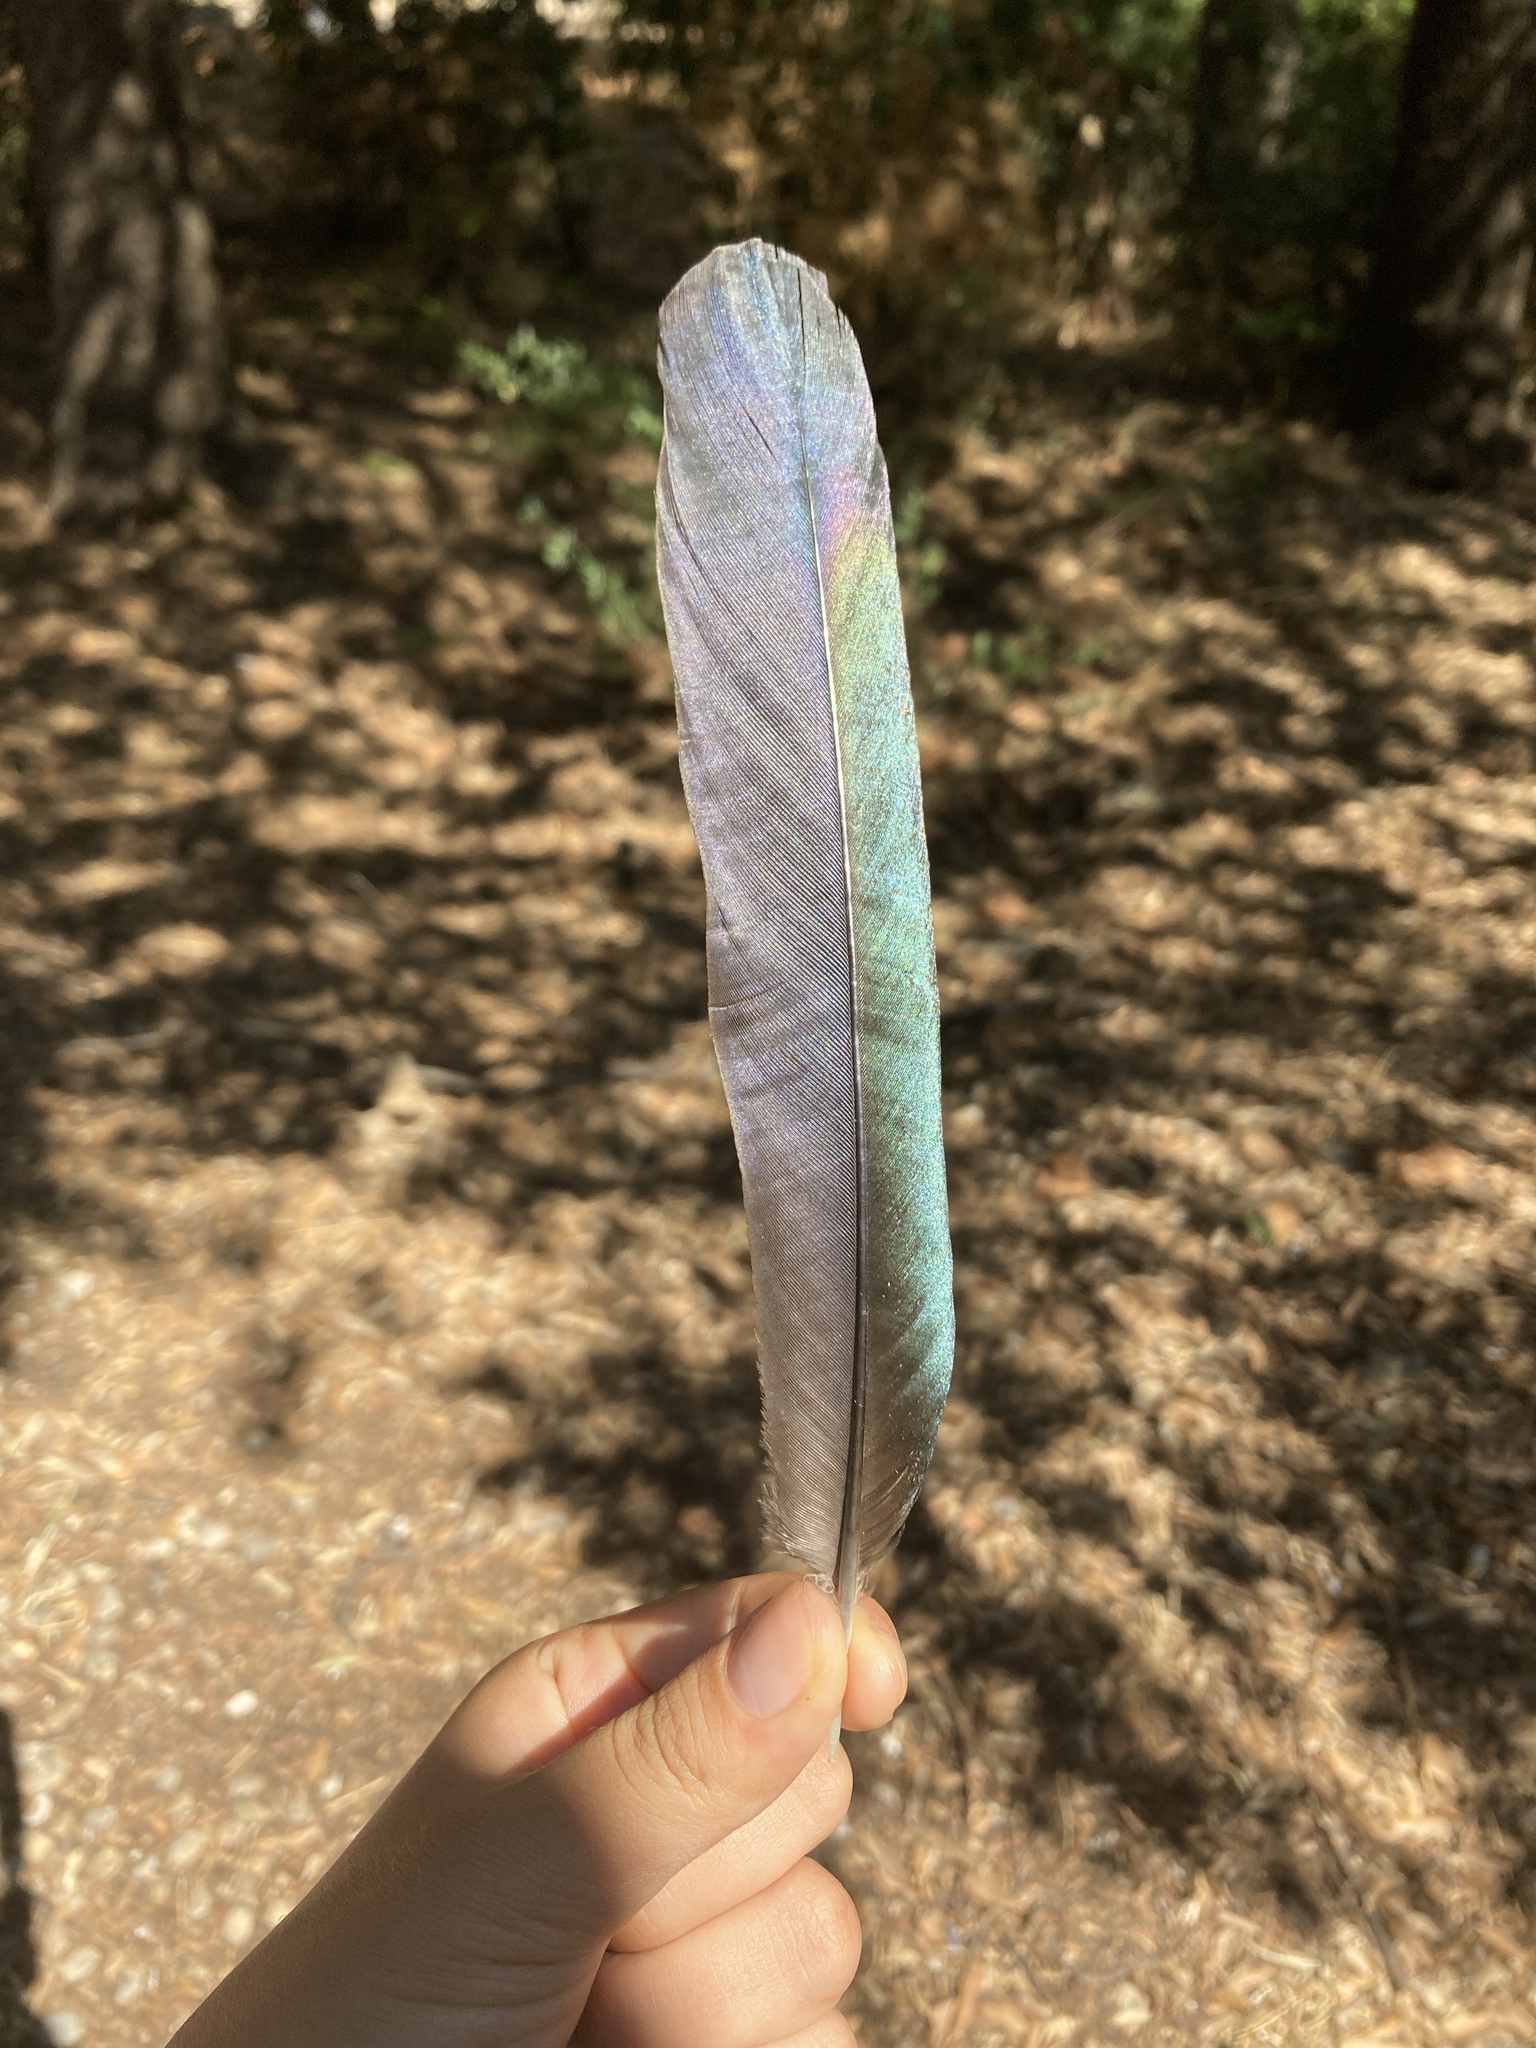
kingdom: Animalia
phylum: Chordata
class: Aves
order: Passeriformes
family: Corvidae
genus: Pica
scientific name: Pica pica
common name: Eurasian magpie
